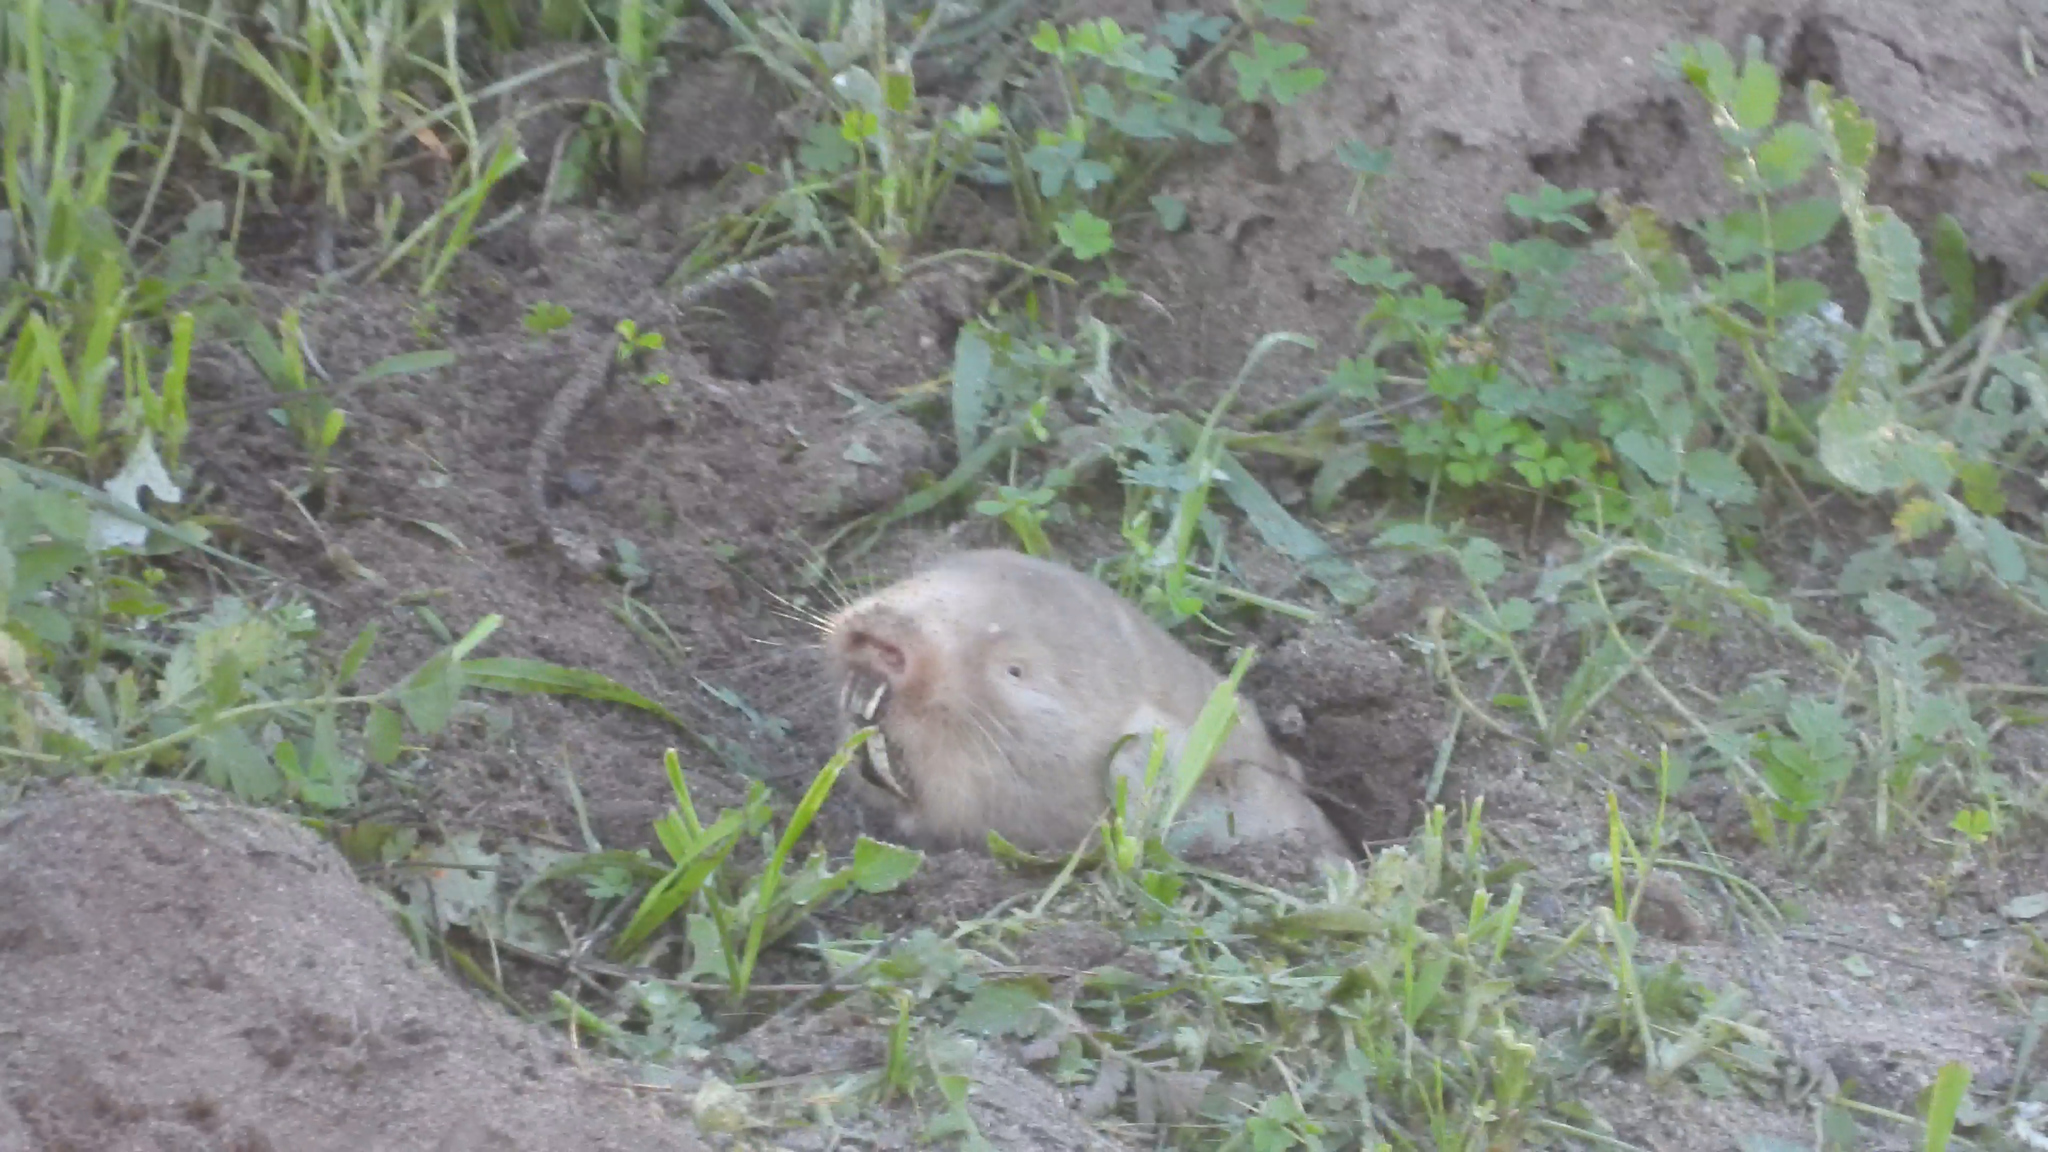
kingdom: Animalia
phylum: Chordata
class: Mammalia
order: Rodentia
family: Bathyergidae
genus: Bathyergus
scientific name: Bathyergus suillus
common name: Cape dune mole rat
